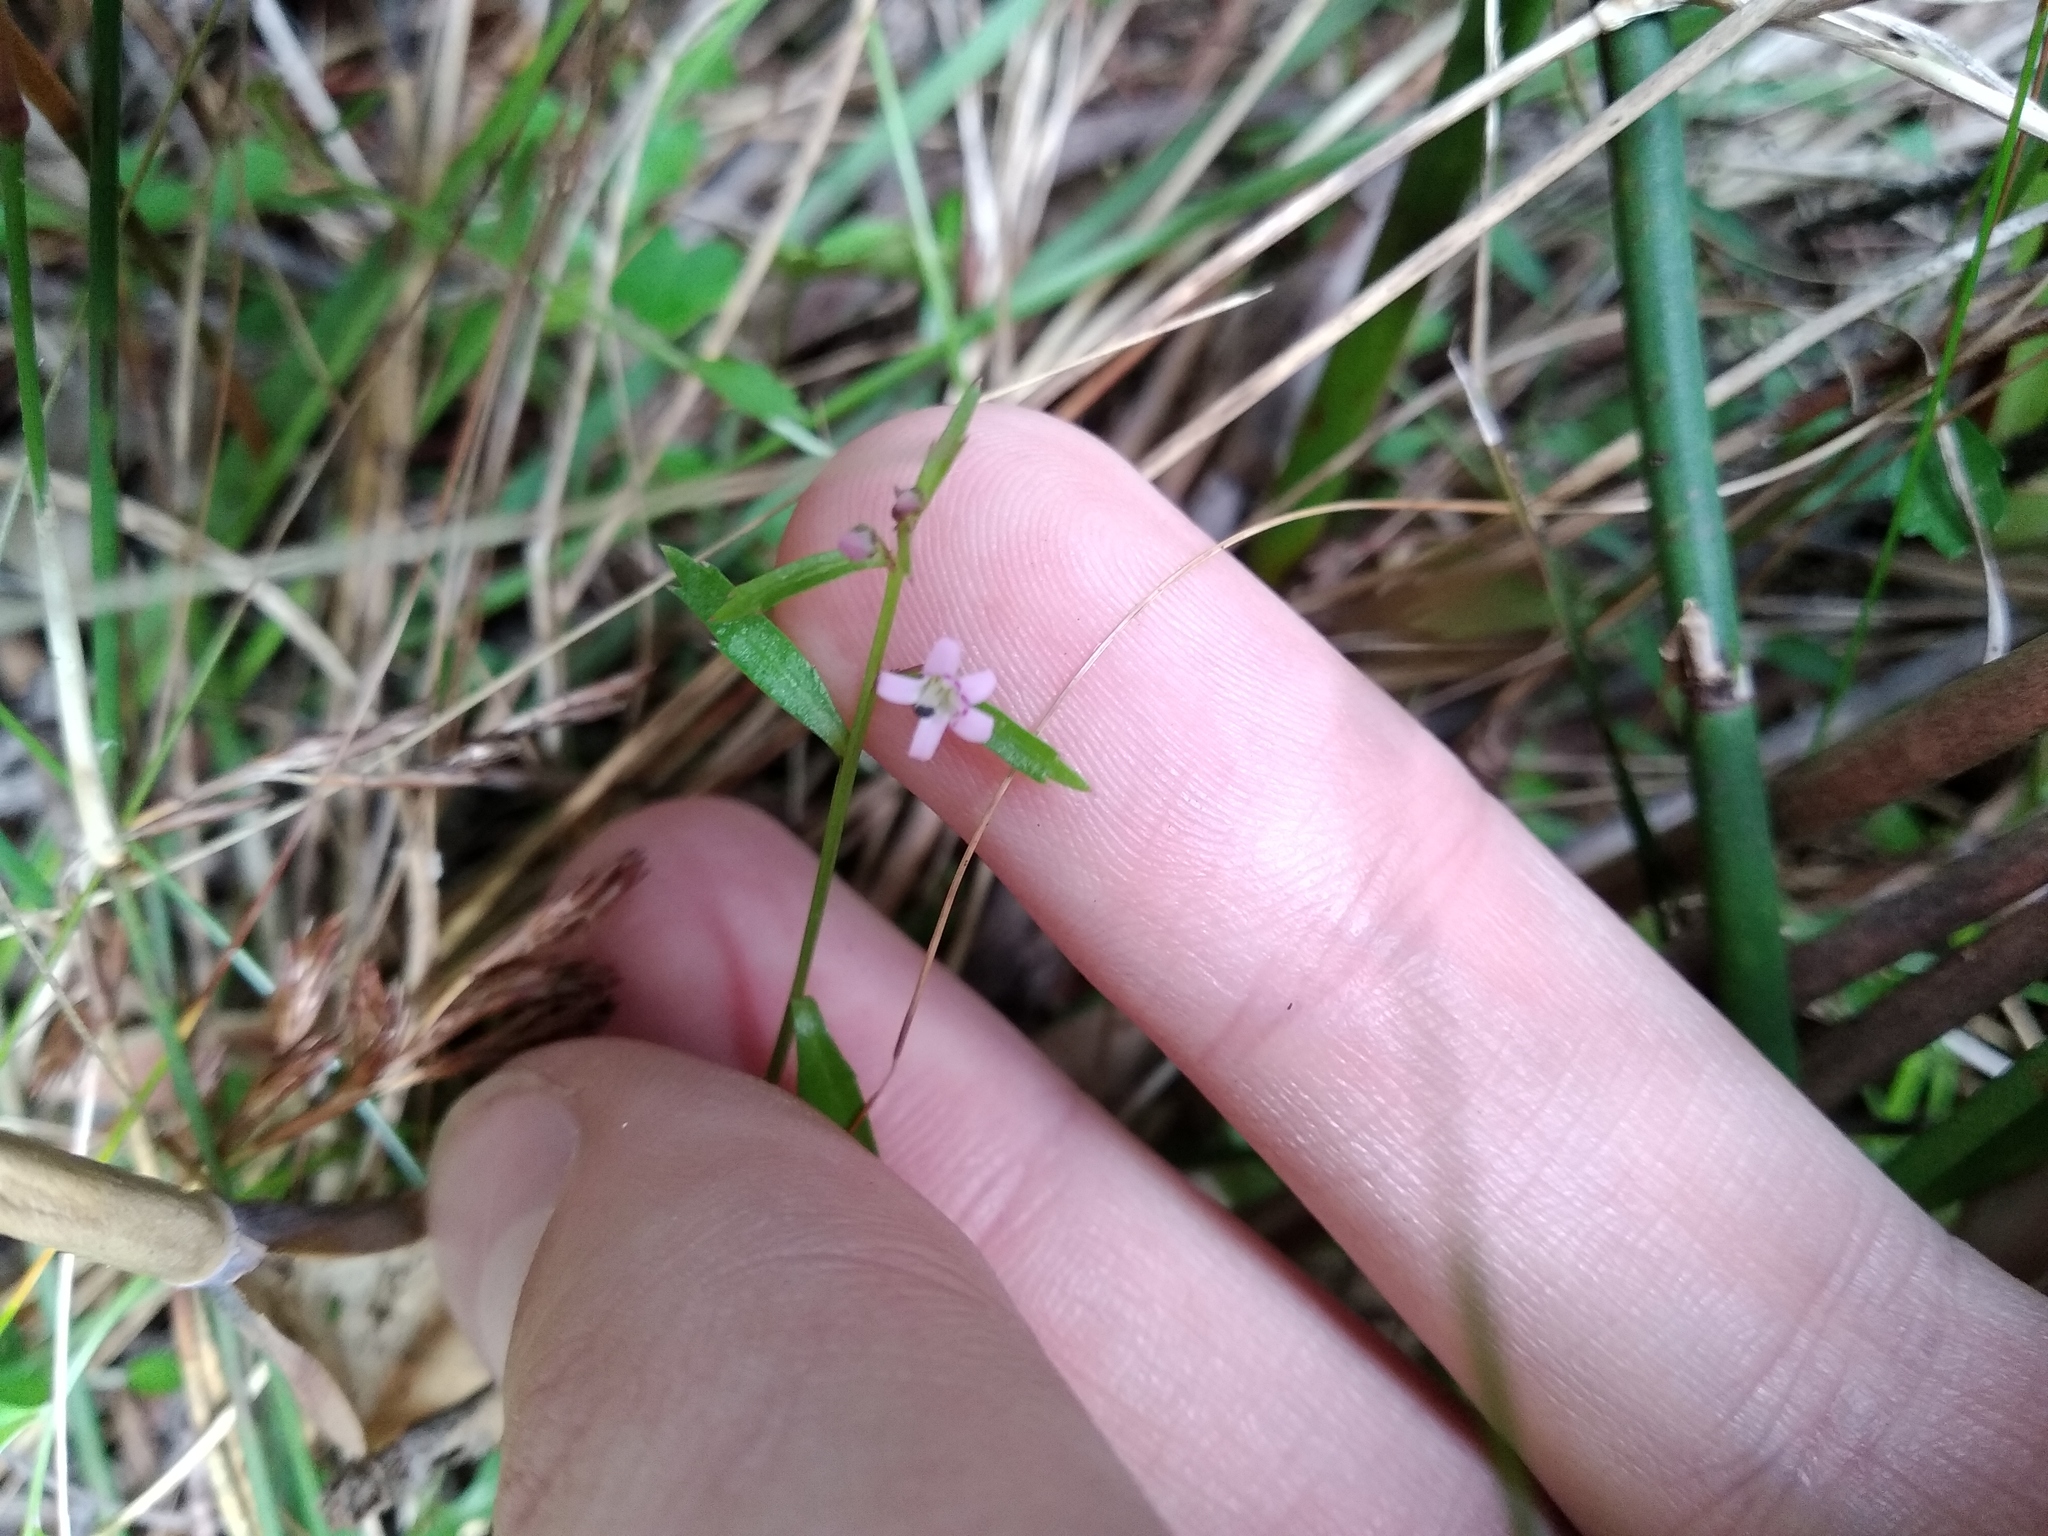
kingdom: Plantae
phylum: Tracheophyta
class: Magnoliopsida
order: Asterales
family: Campanulaceae
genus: Lobelia
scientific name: Lobelia eckloniana
